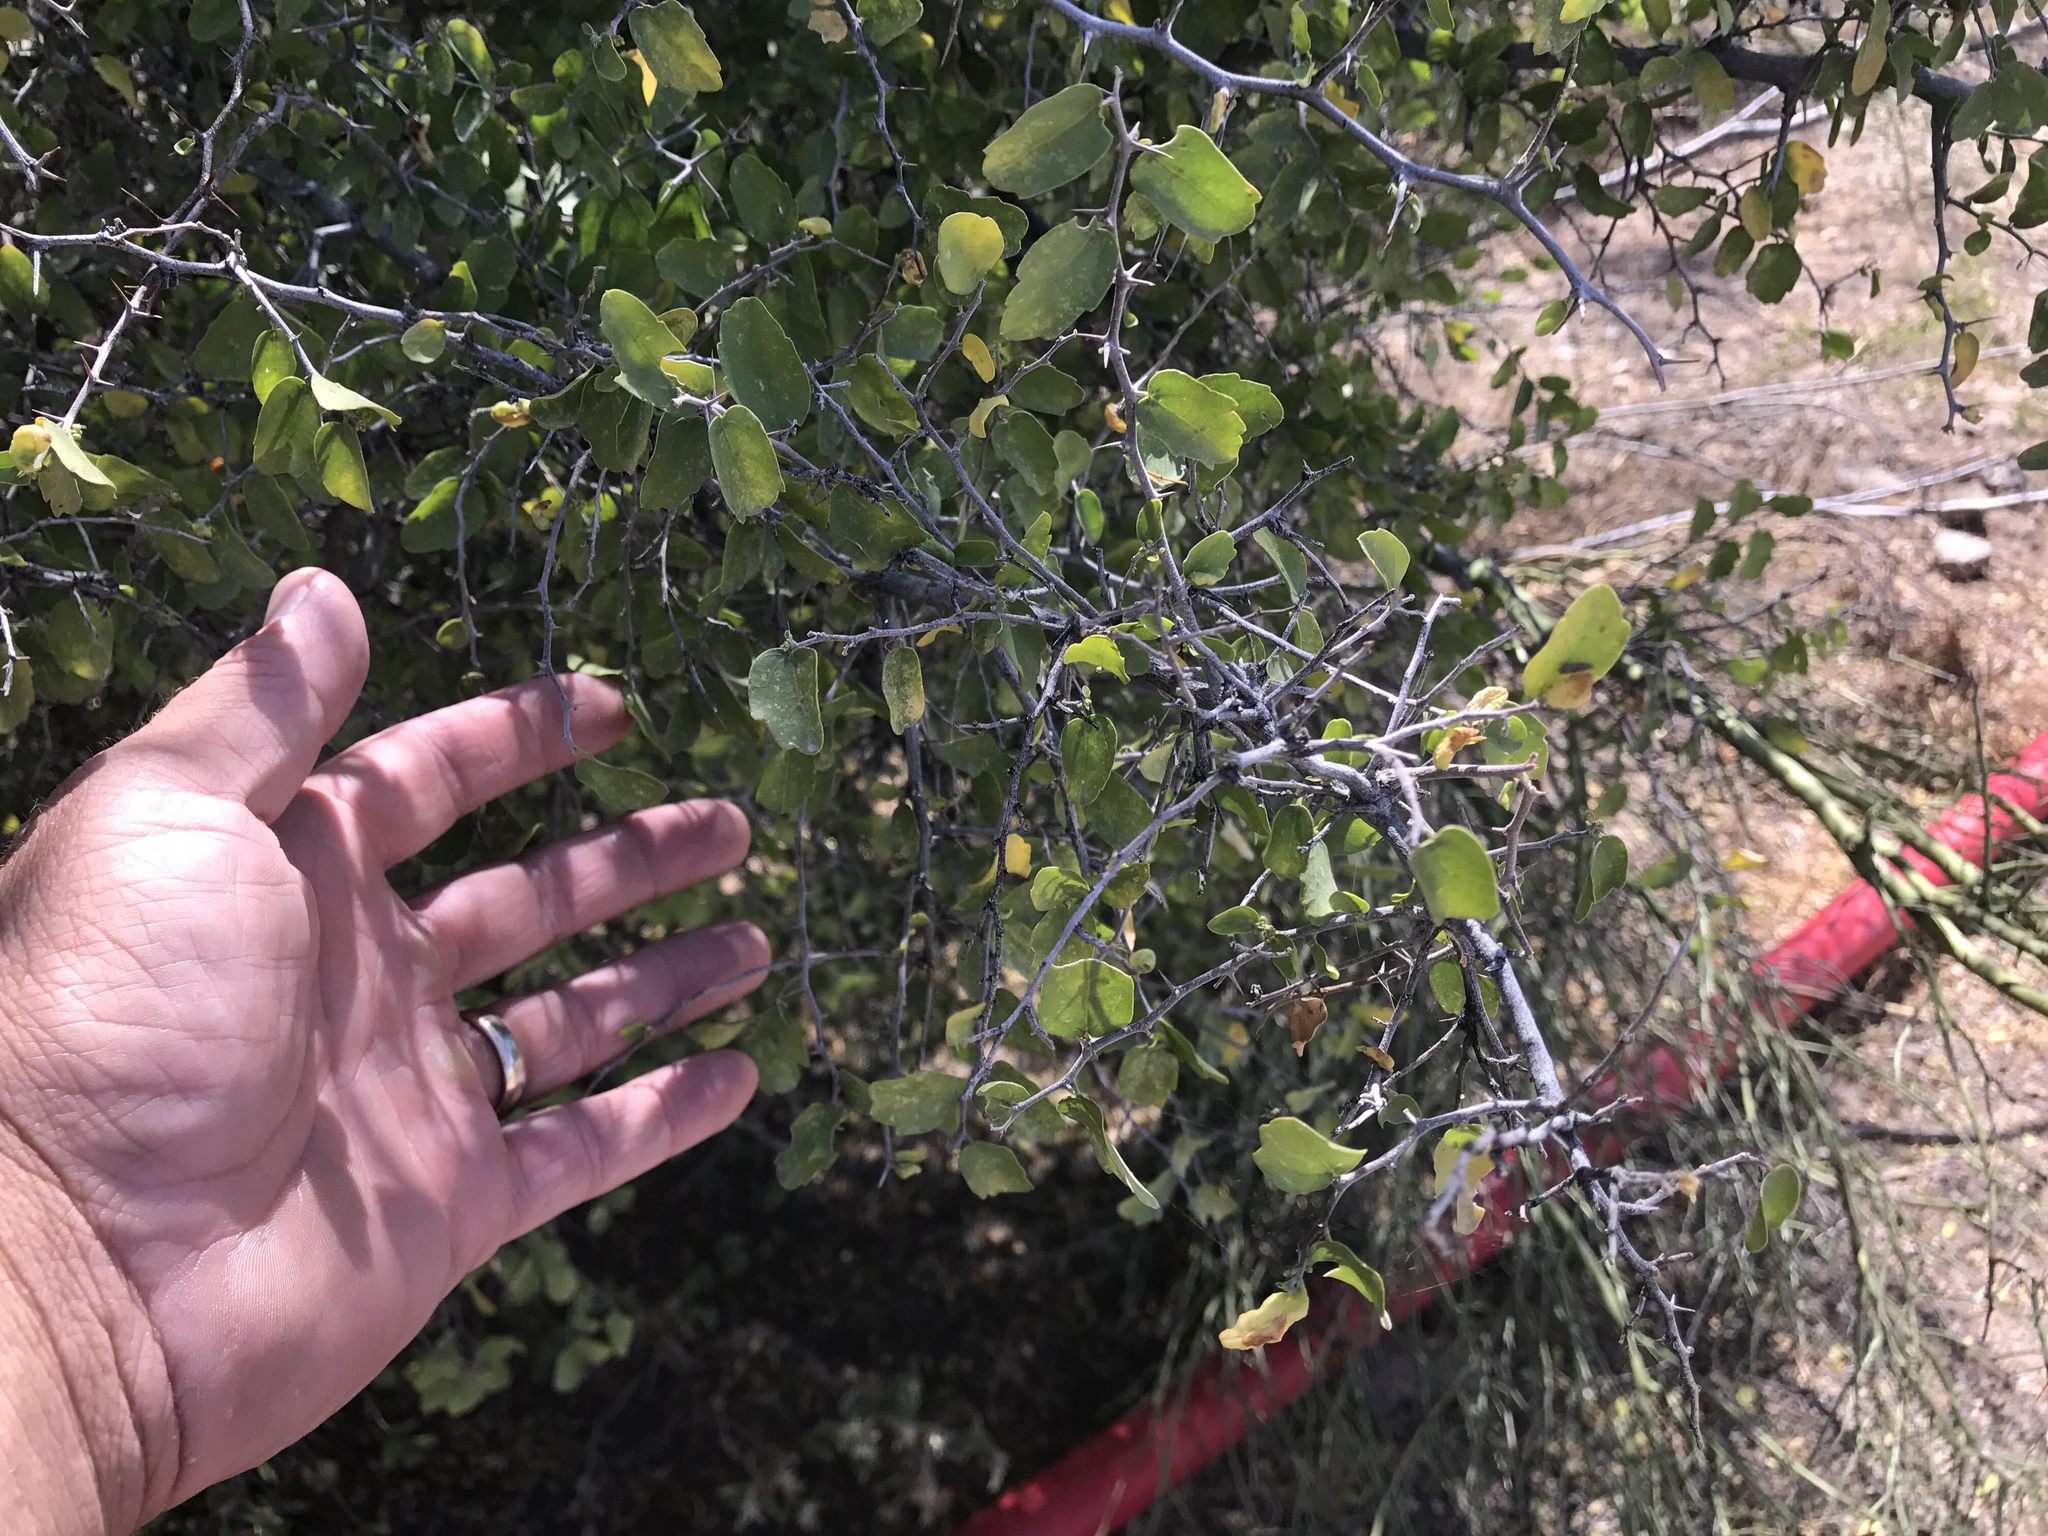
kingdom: Plantae
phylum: Tracheophyta
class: Magnoliopsida
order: Rosales
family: Cannabaceae
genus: Celtis
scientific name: Celtis pallida
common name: Desert hackberry
